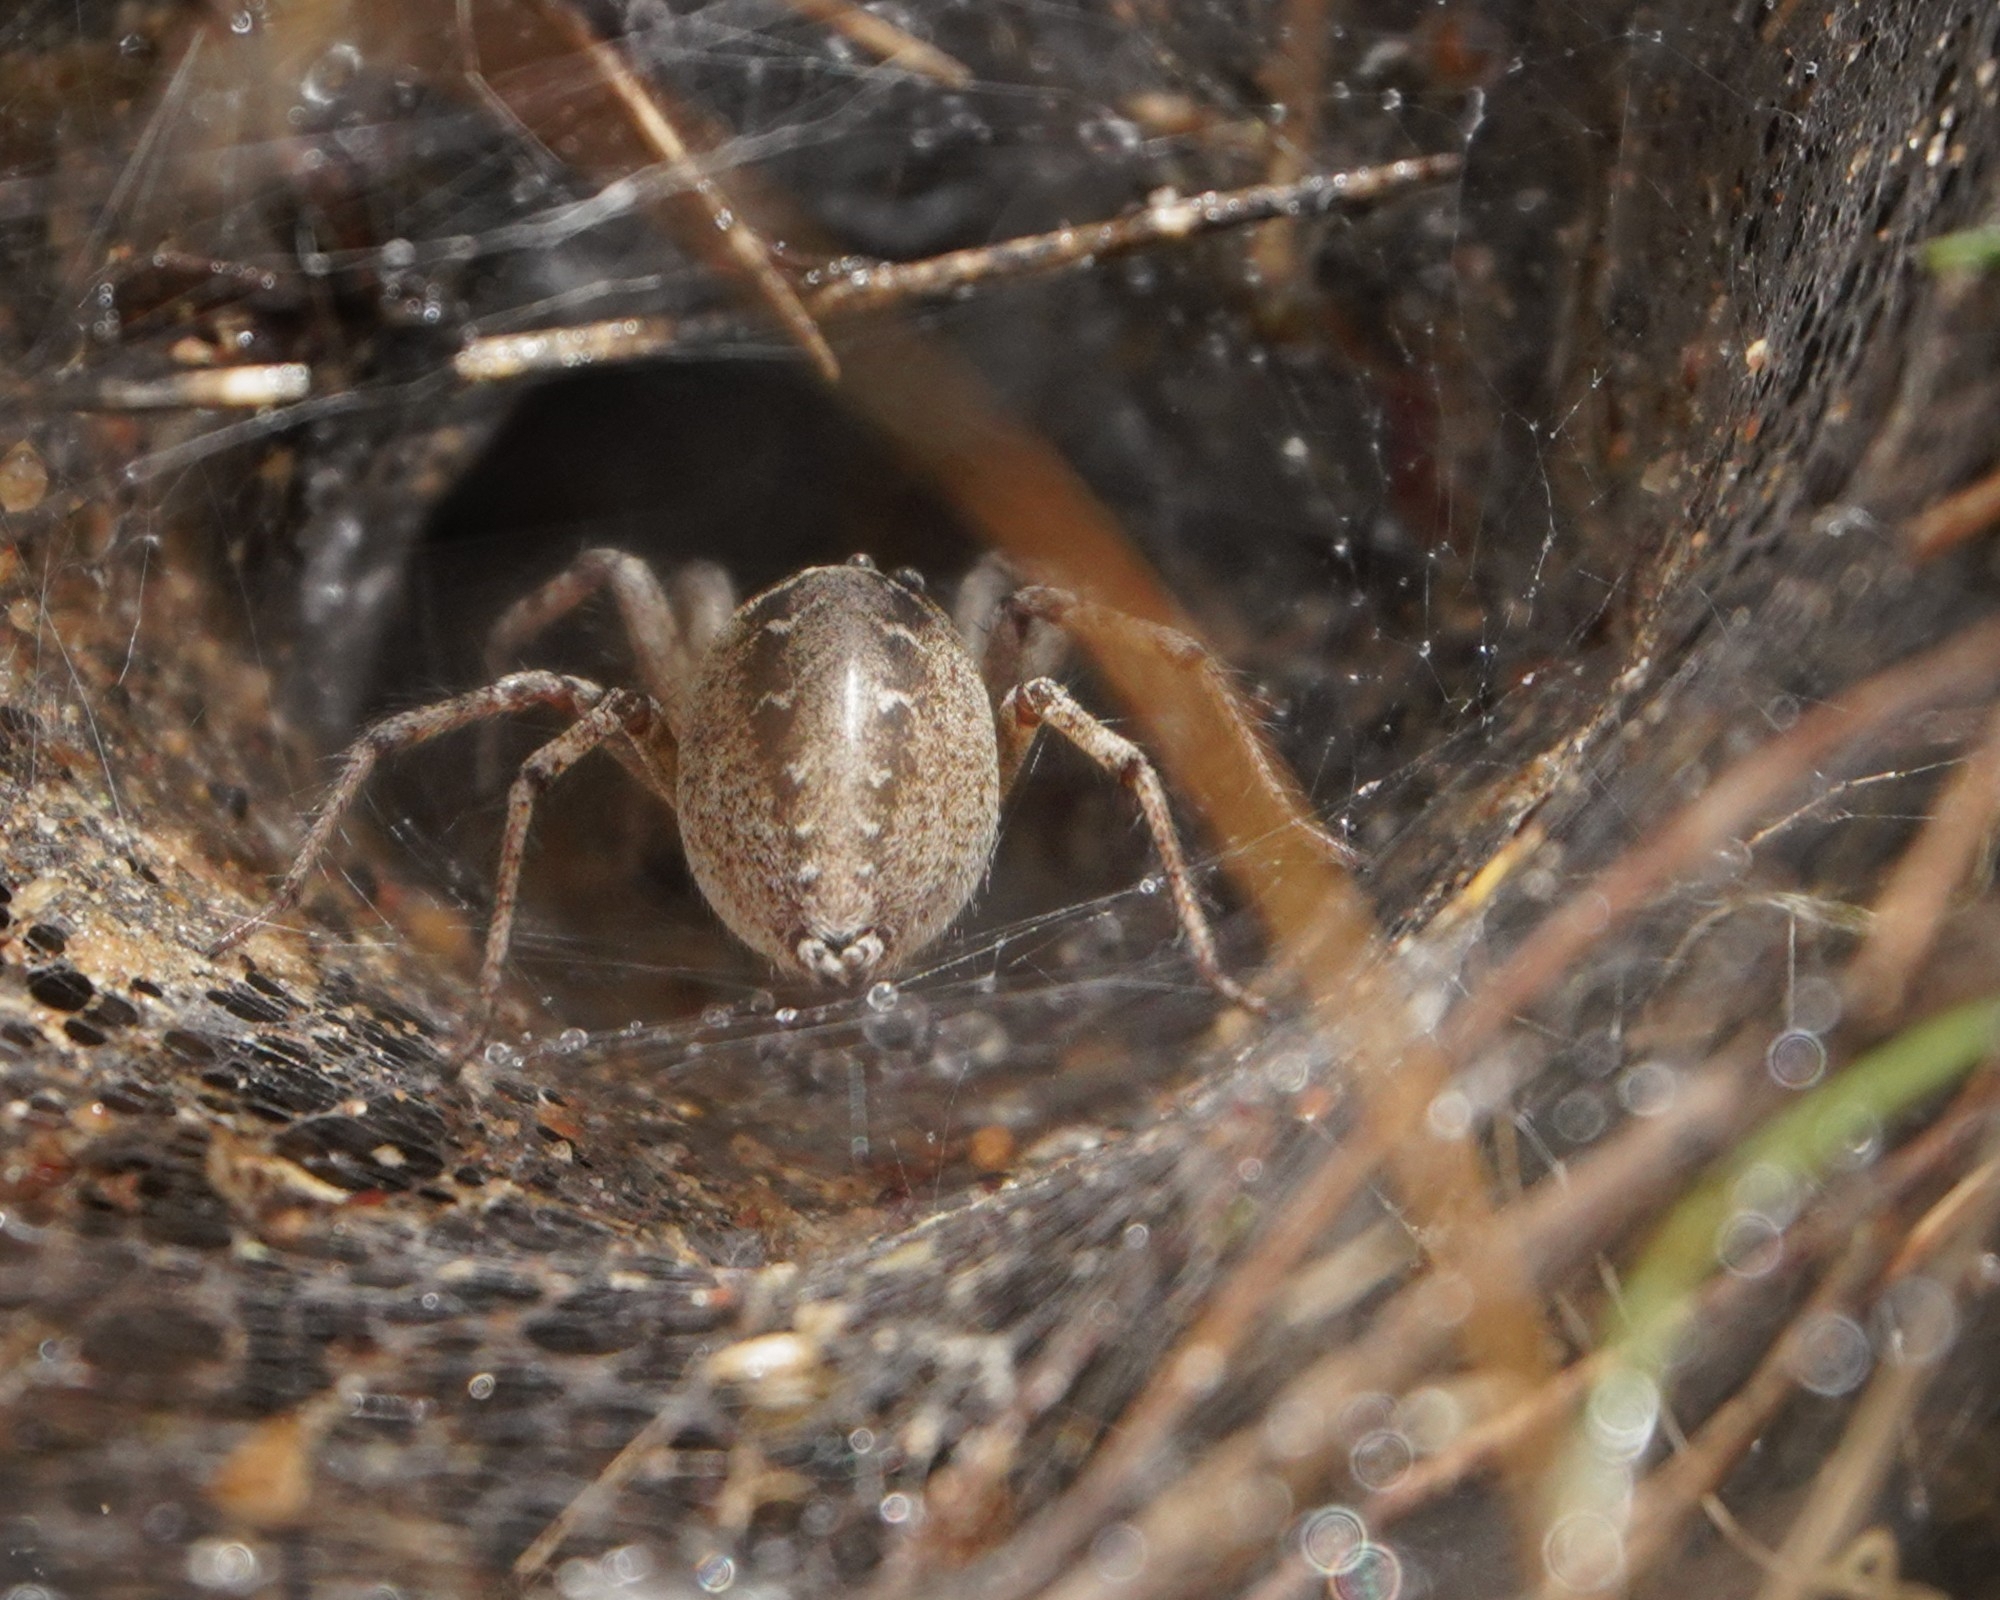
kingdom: Animalia
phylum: Arthropoda
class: Arachnida
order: Araneae
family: Agelenidae
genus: Agelena
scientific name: Agelena labyrinthica
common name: Labyrinth spider
